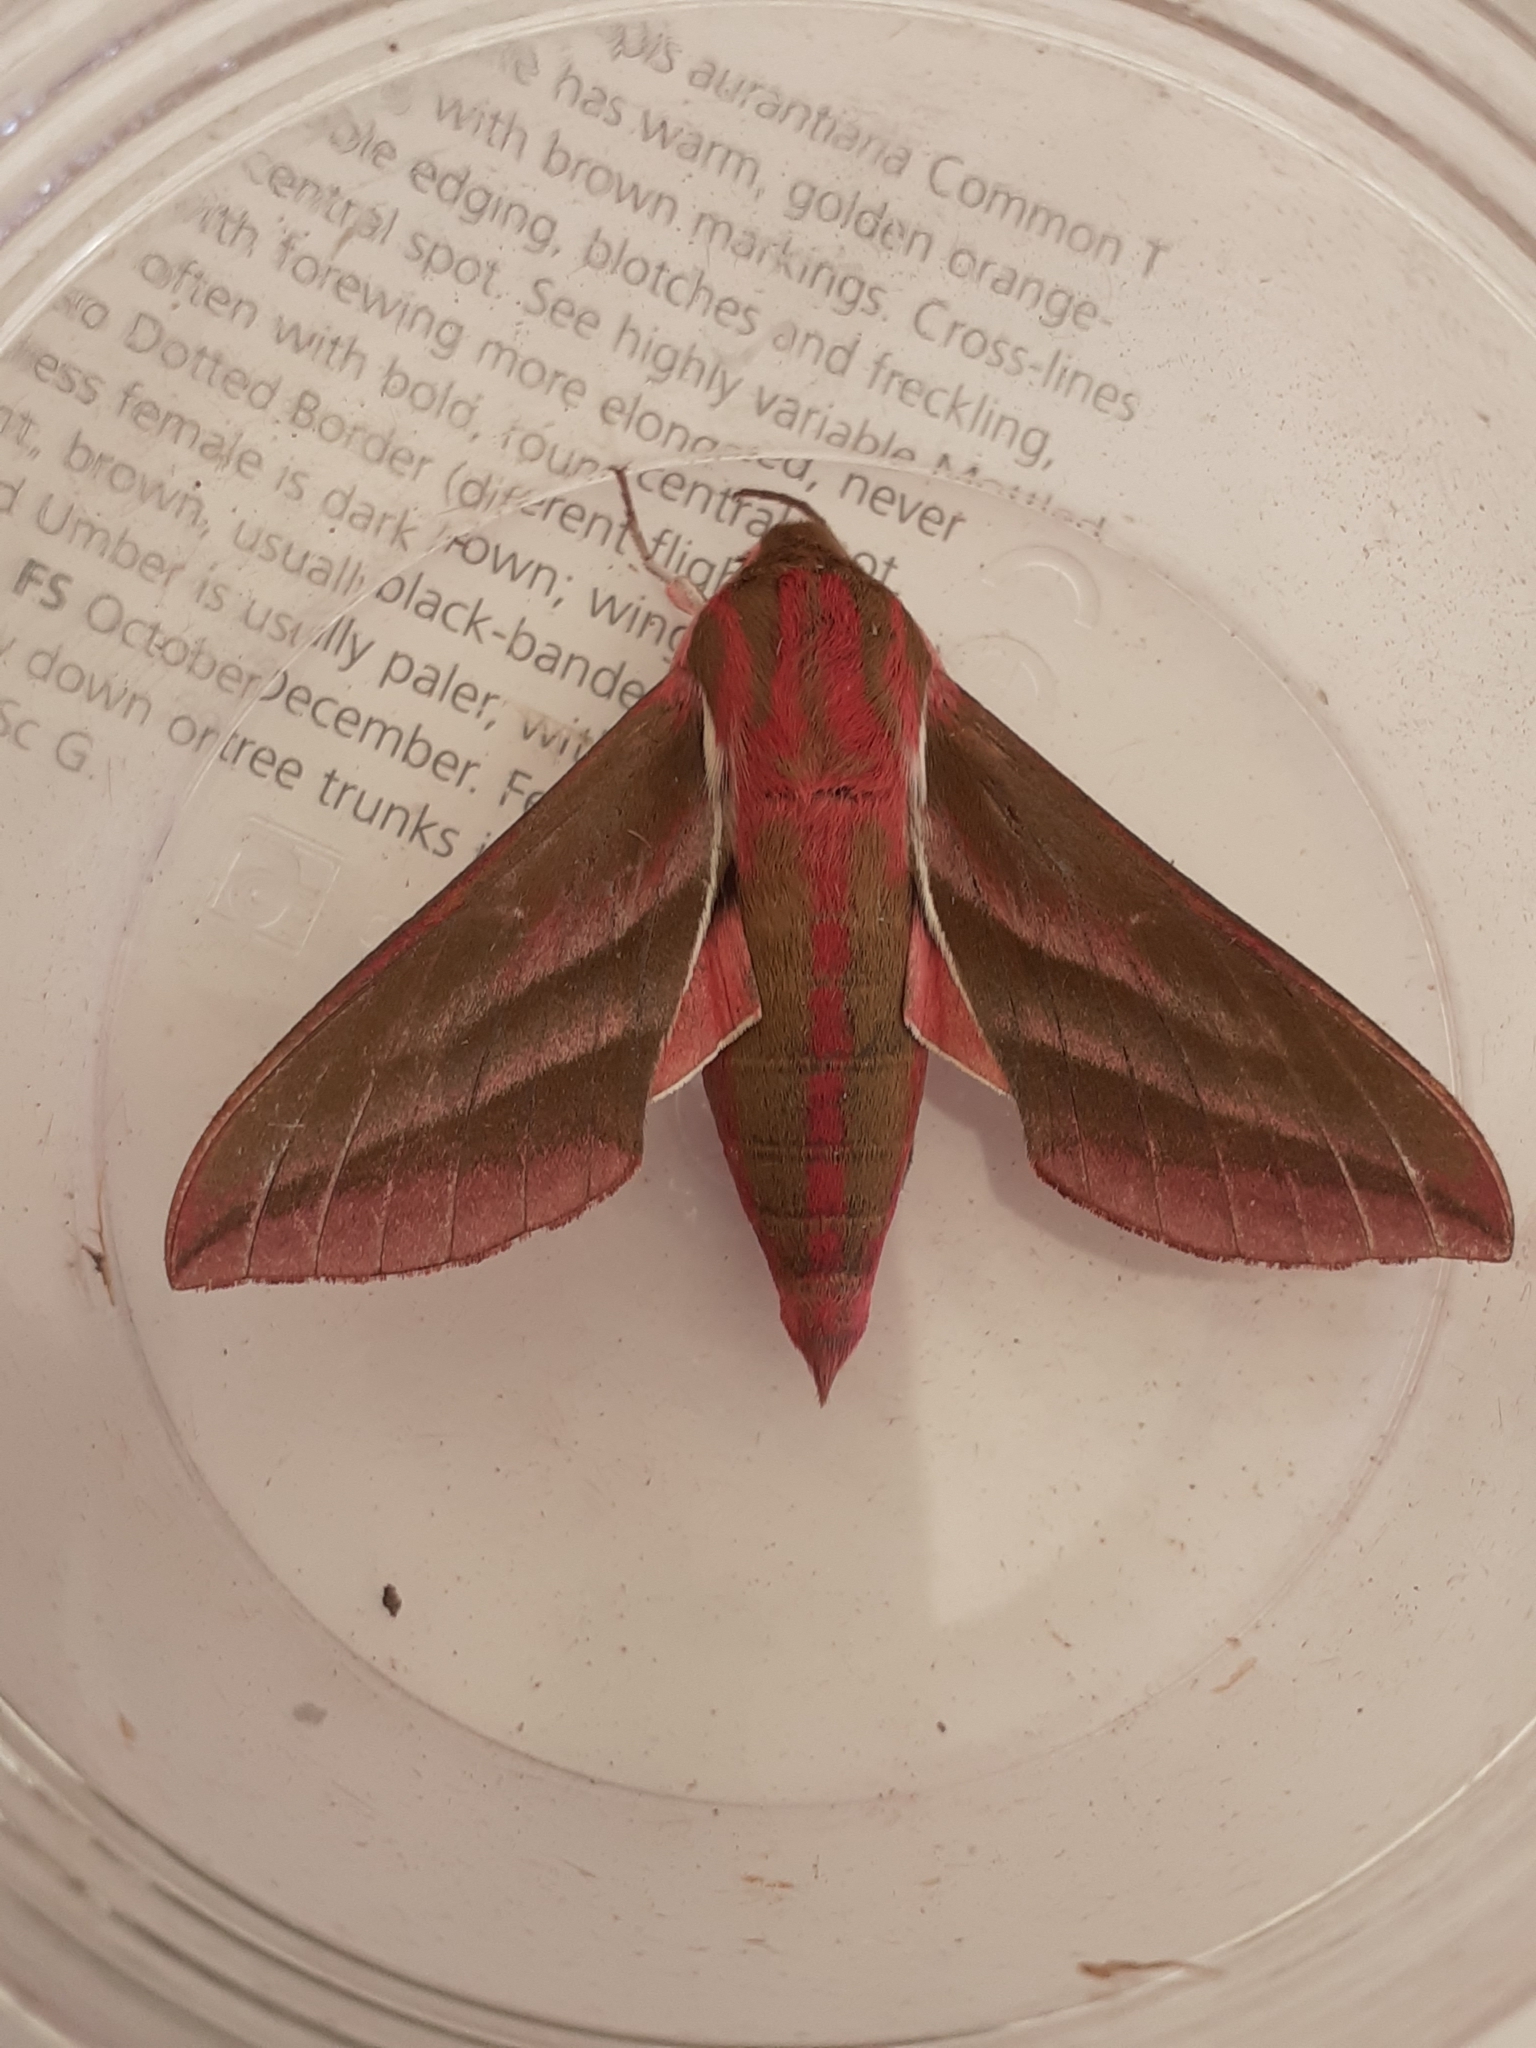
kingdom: Animalia
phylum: Arthropoda
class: Insecta
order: Lepidoptera
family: Sphingidae
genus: Deilephila
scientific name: Deilephila elpenor
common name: Elephant hawk-moth
